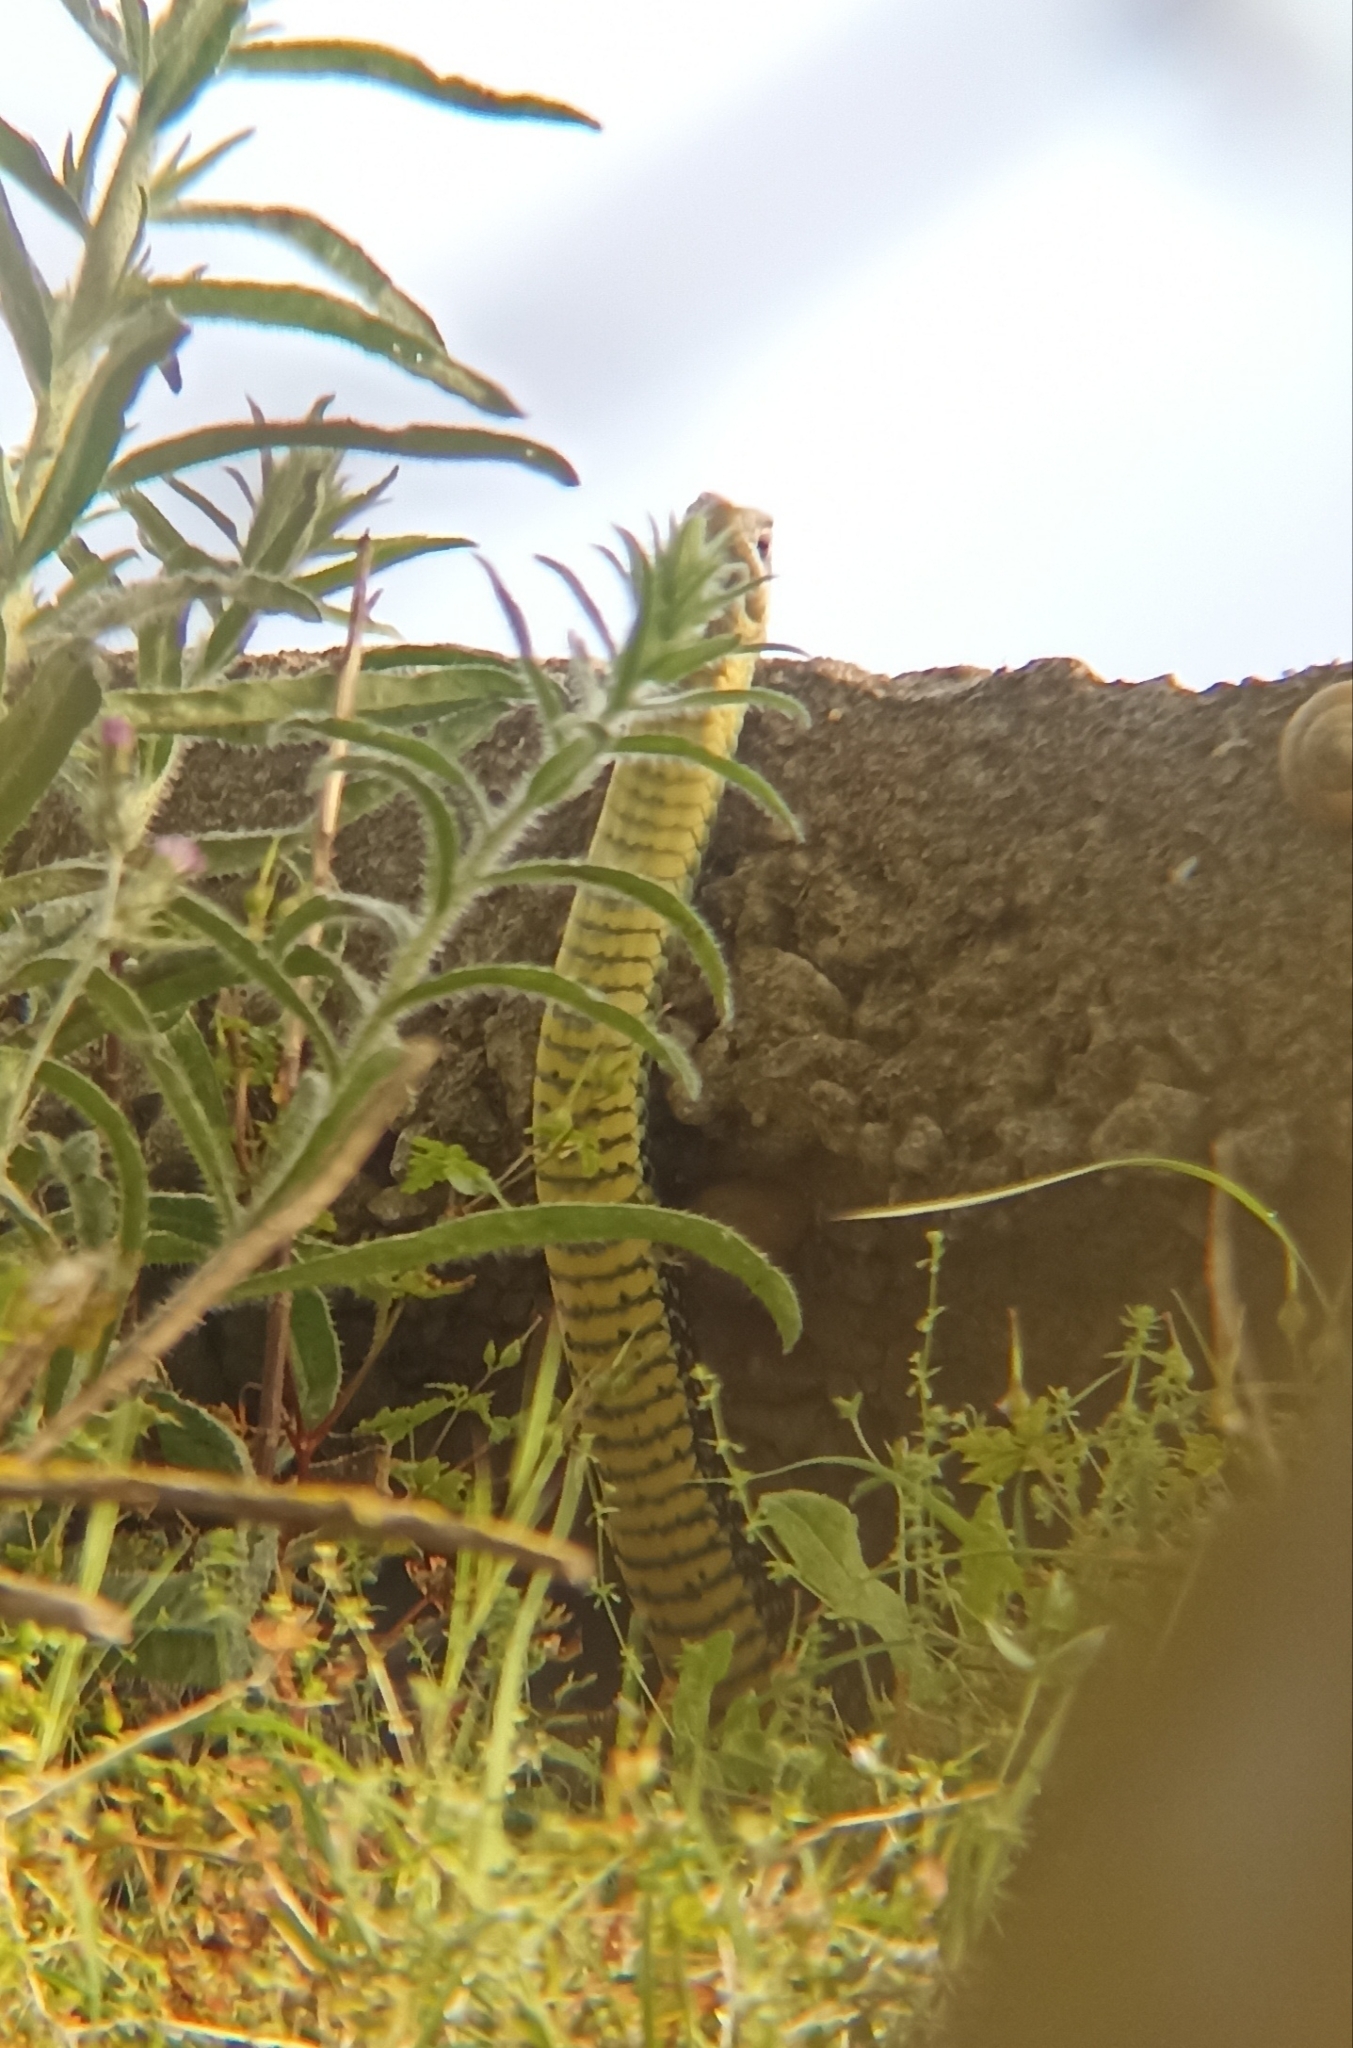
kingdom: Animalia
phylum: Chordata
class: Squamata
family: Psammophiidae
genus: Malpolon
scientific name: Malpolon monspessulanus
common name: Montpellier snake
